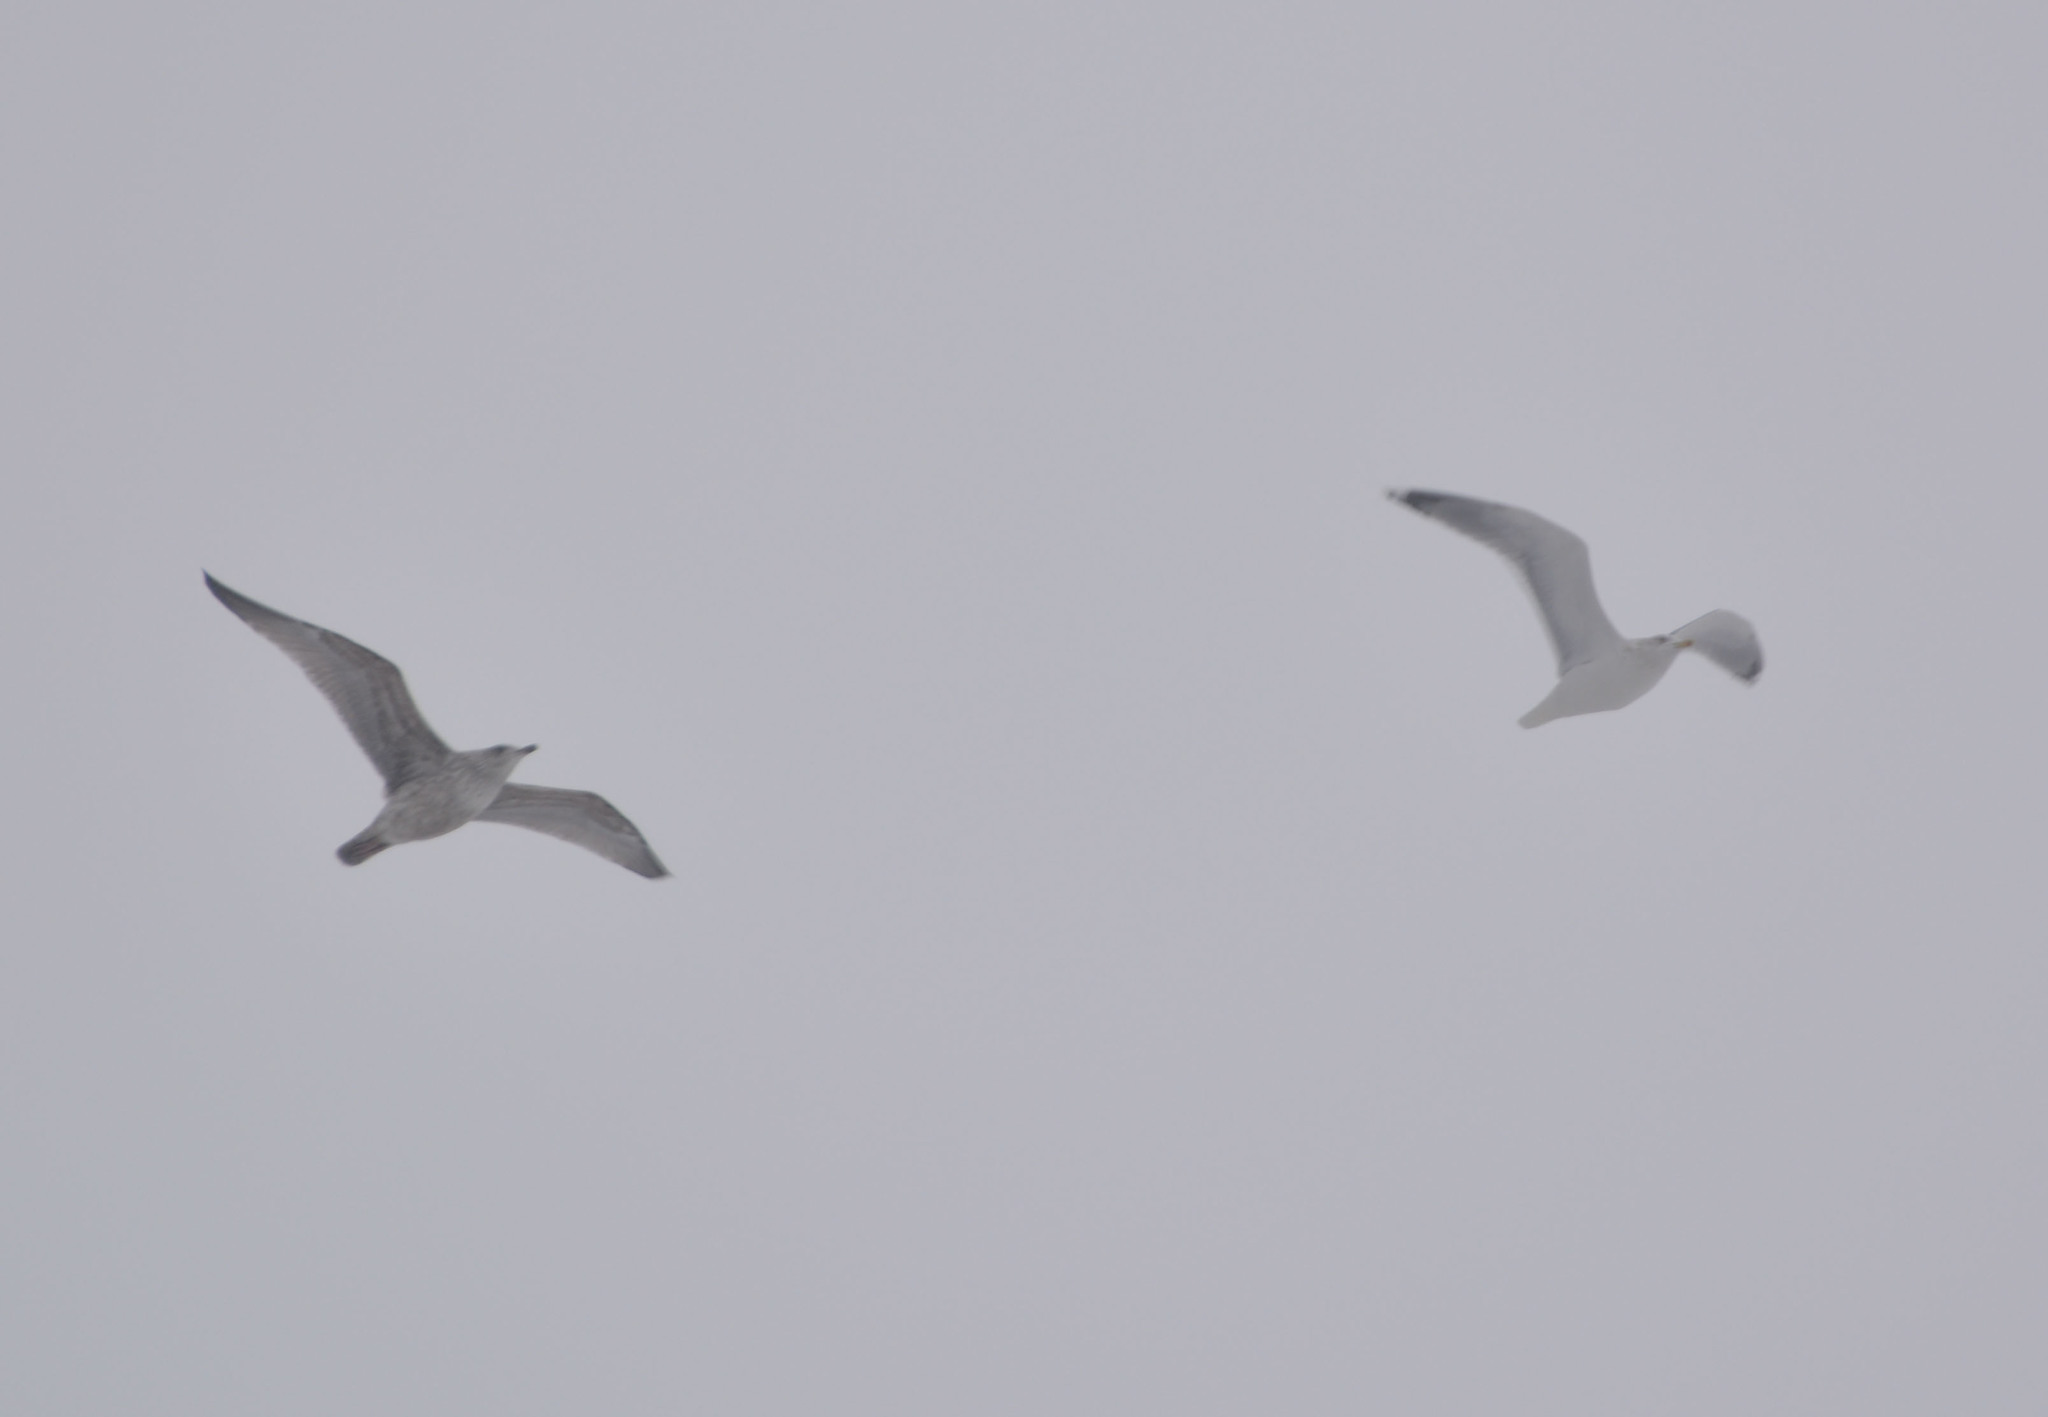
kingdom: Animalia
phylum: Chordata
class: Aves
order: Charadriiformes
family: Laridae
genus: Larus
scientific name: Larus argentatus
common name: Herring gull
